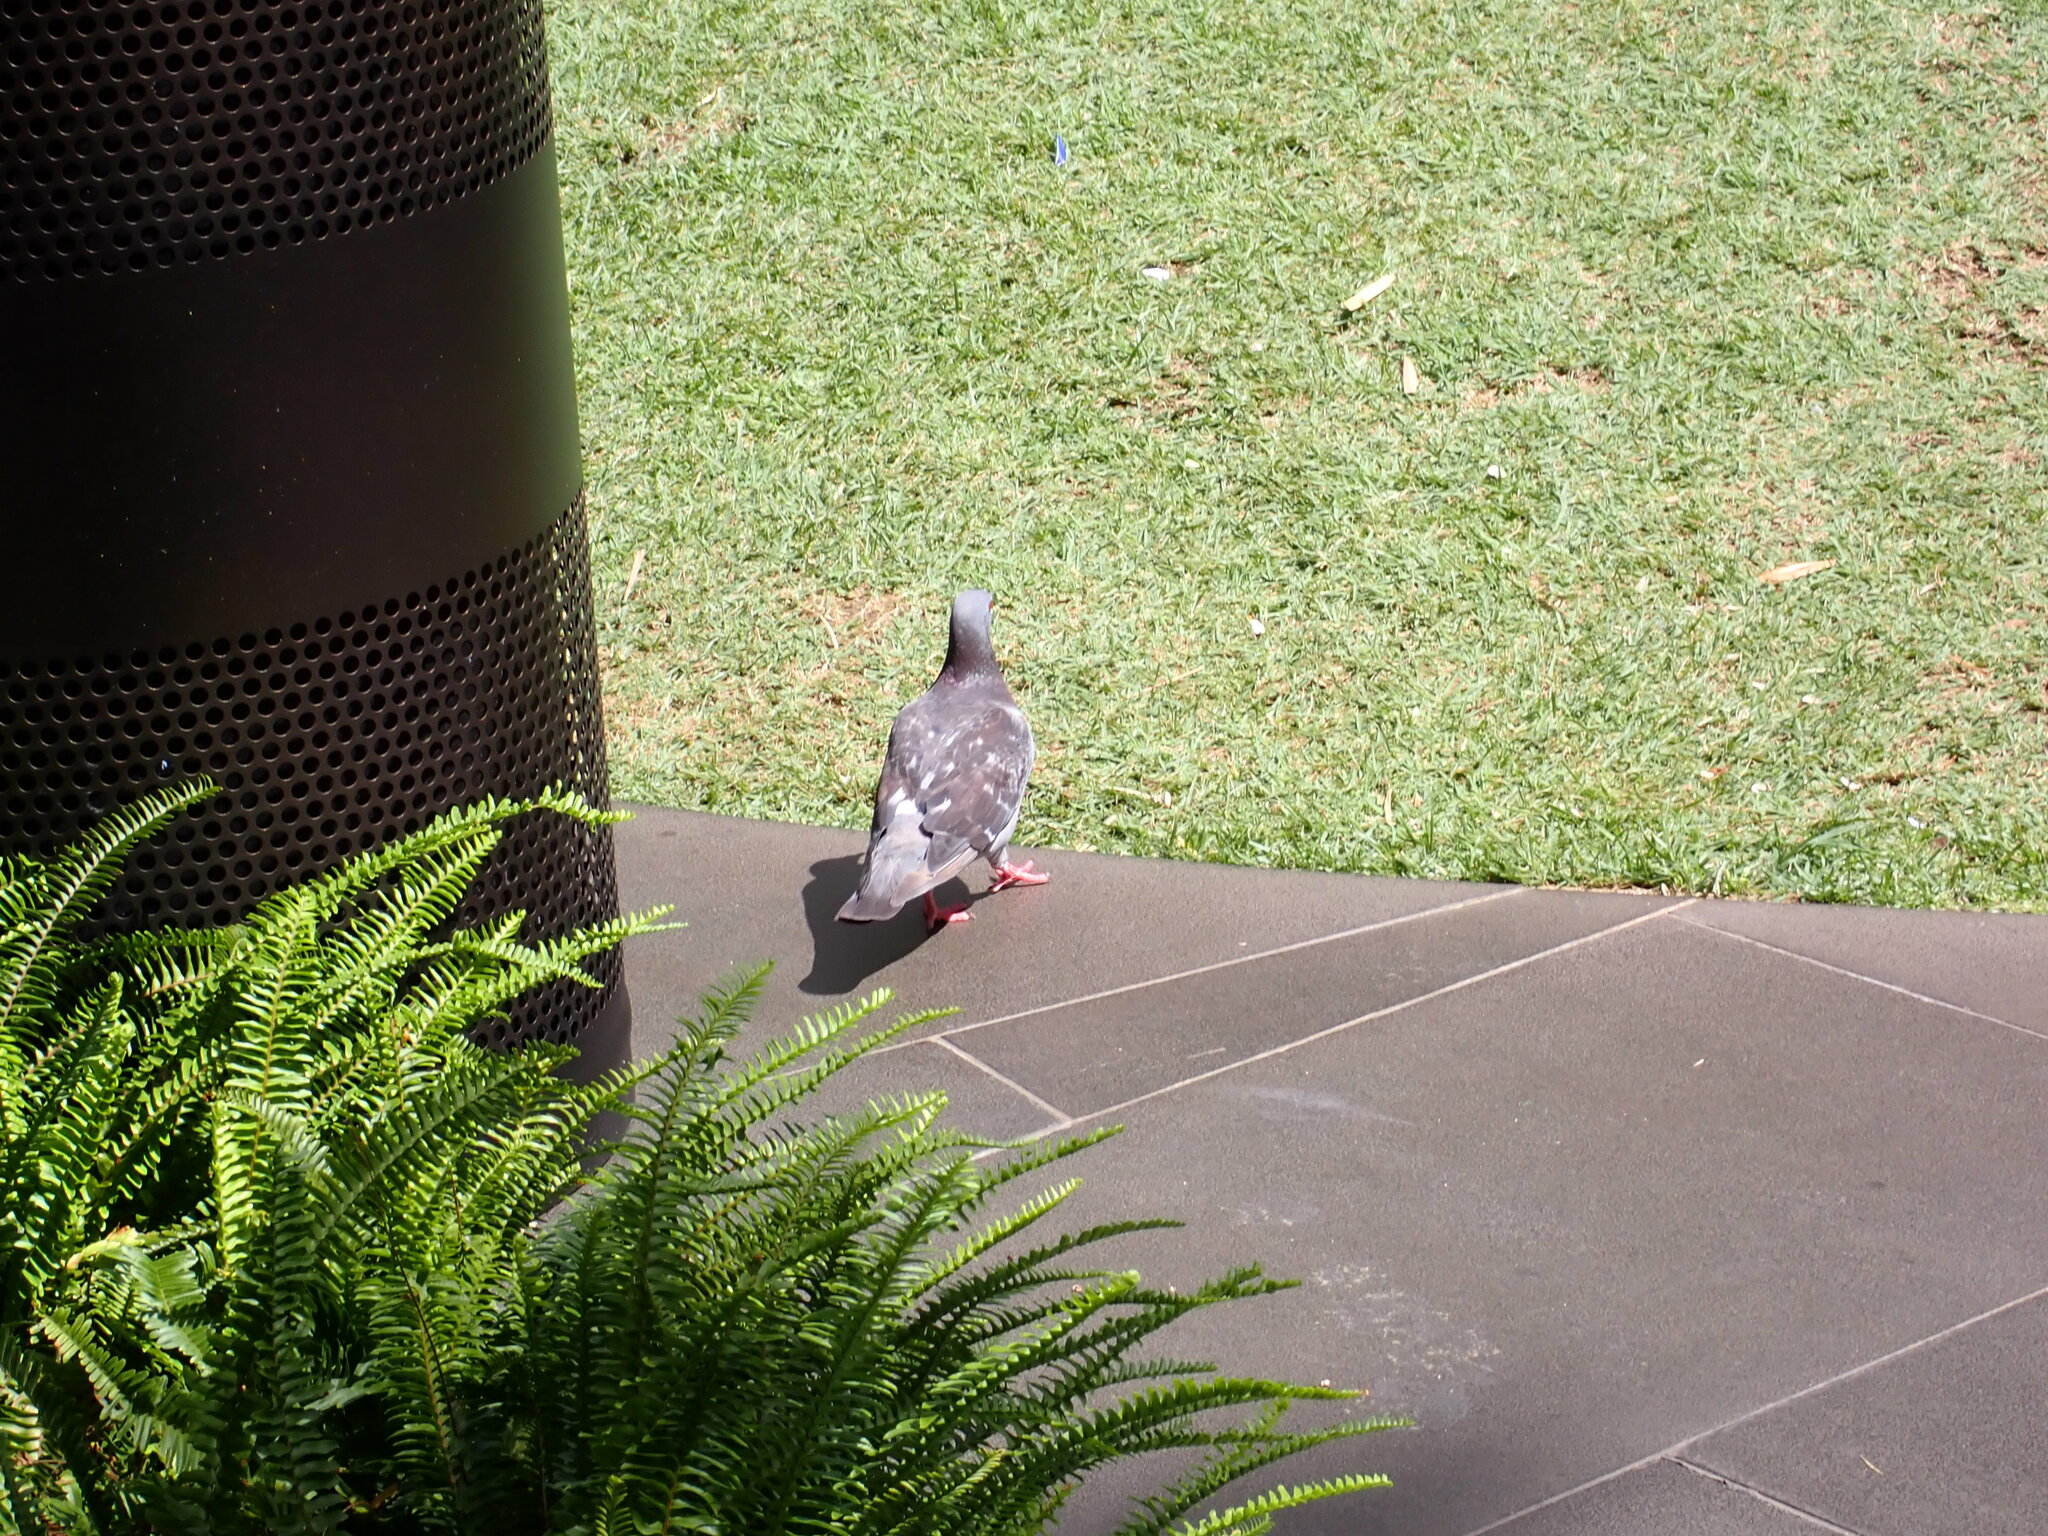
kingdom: Animalia
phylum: Chordata
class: Aves
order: Columbiformes
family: Columbidae
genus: Columba
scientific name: Columba livia
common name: Rock pigeon
